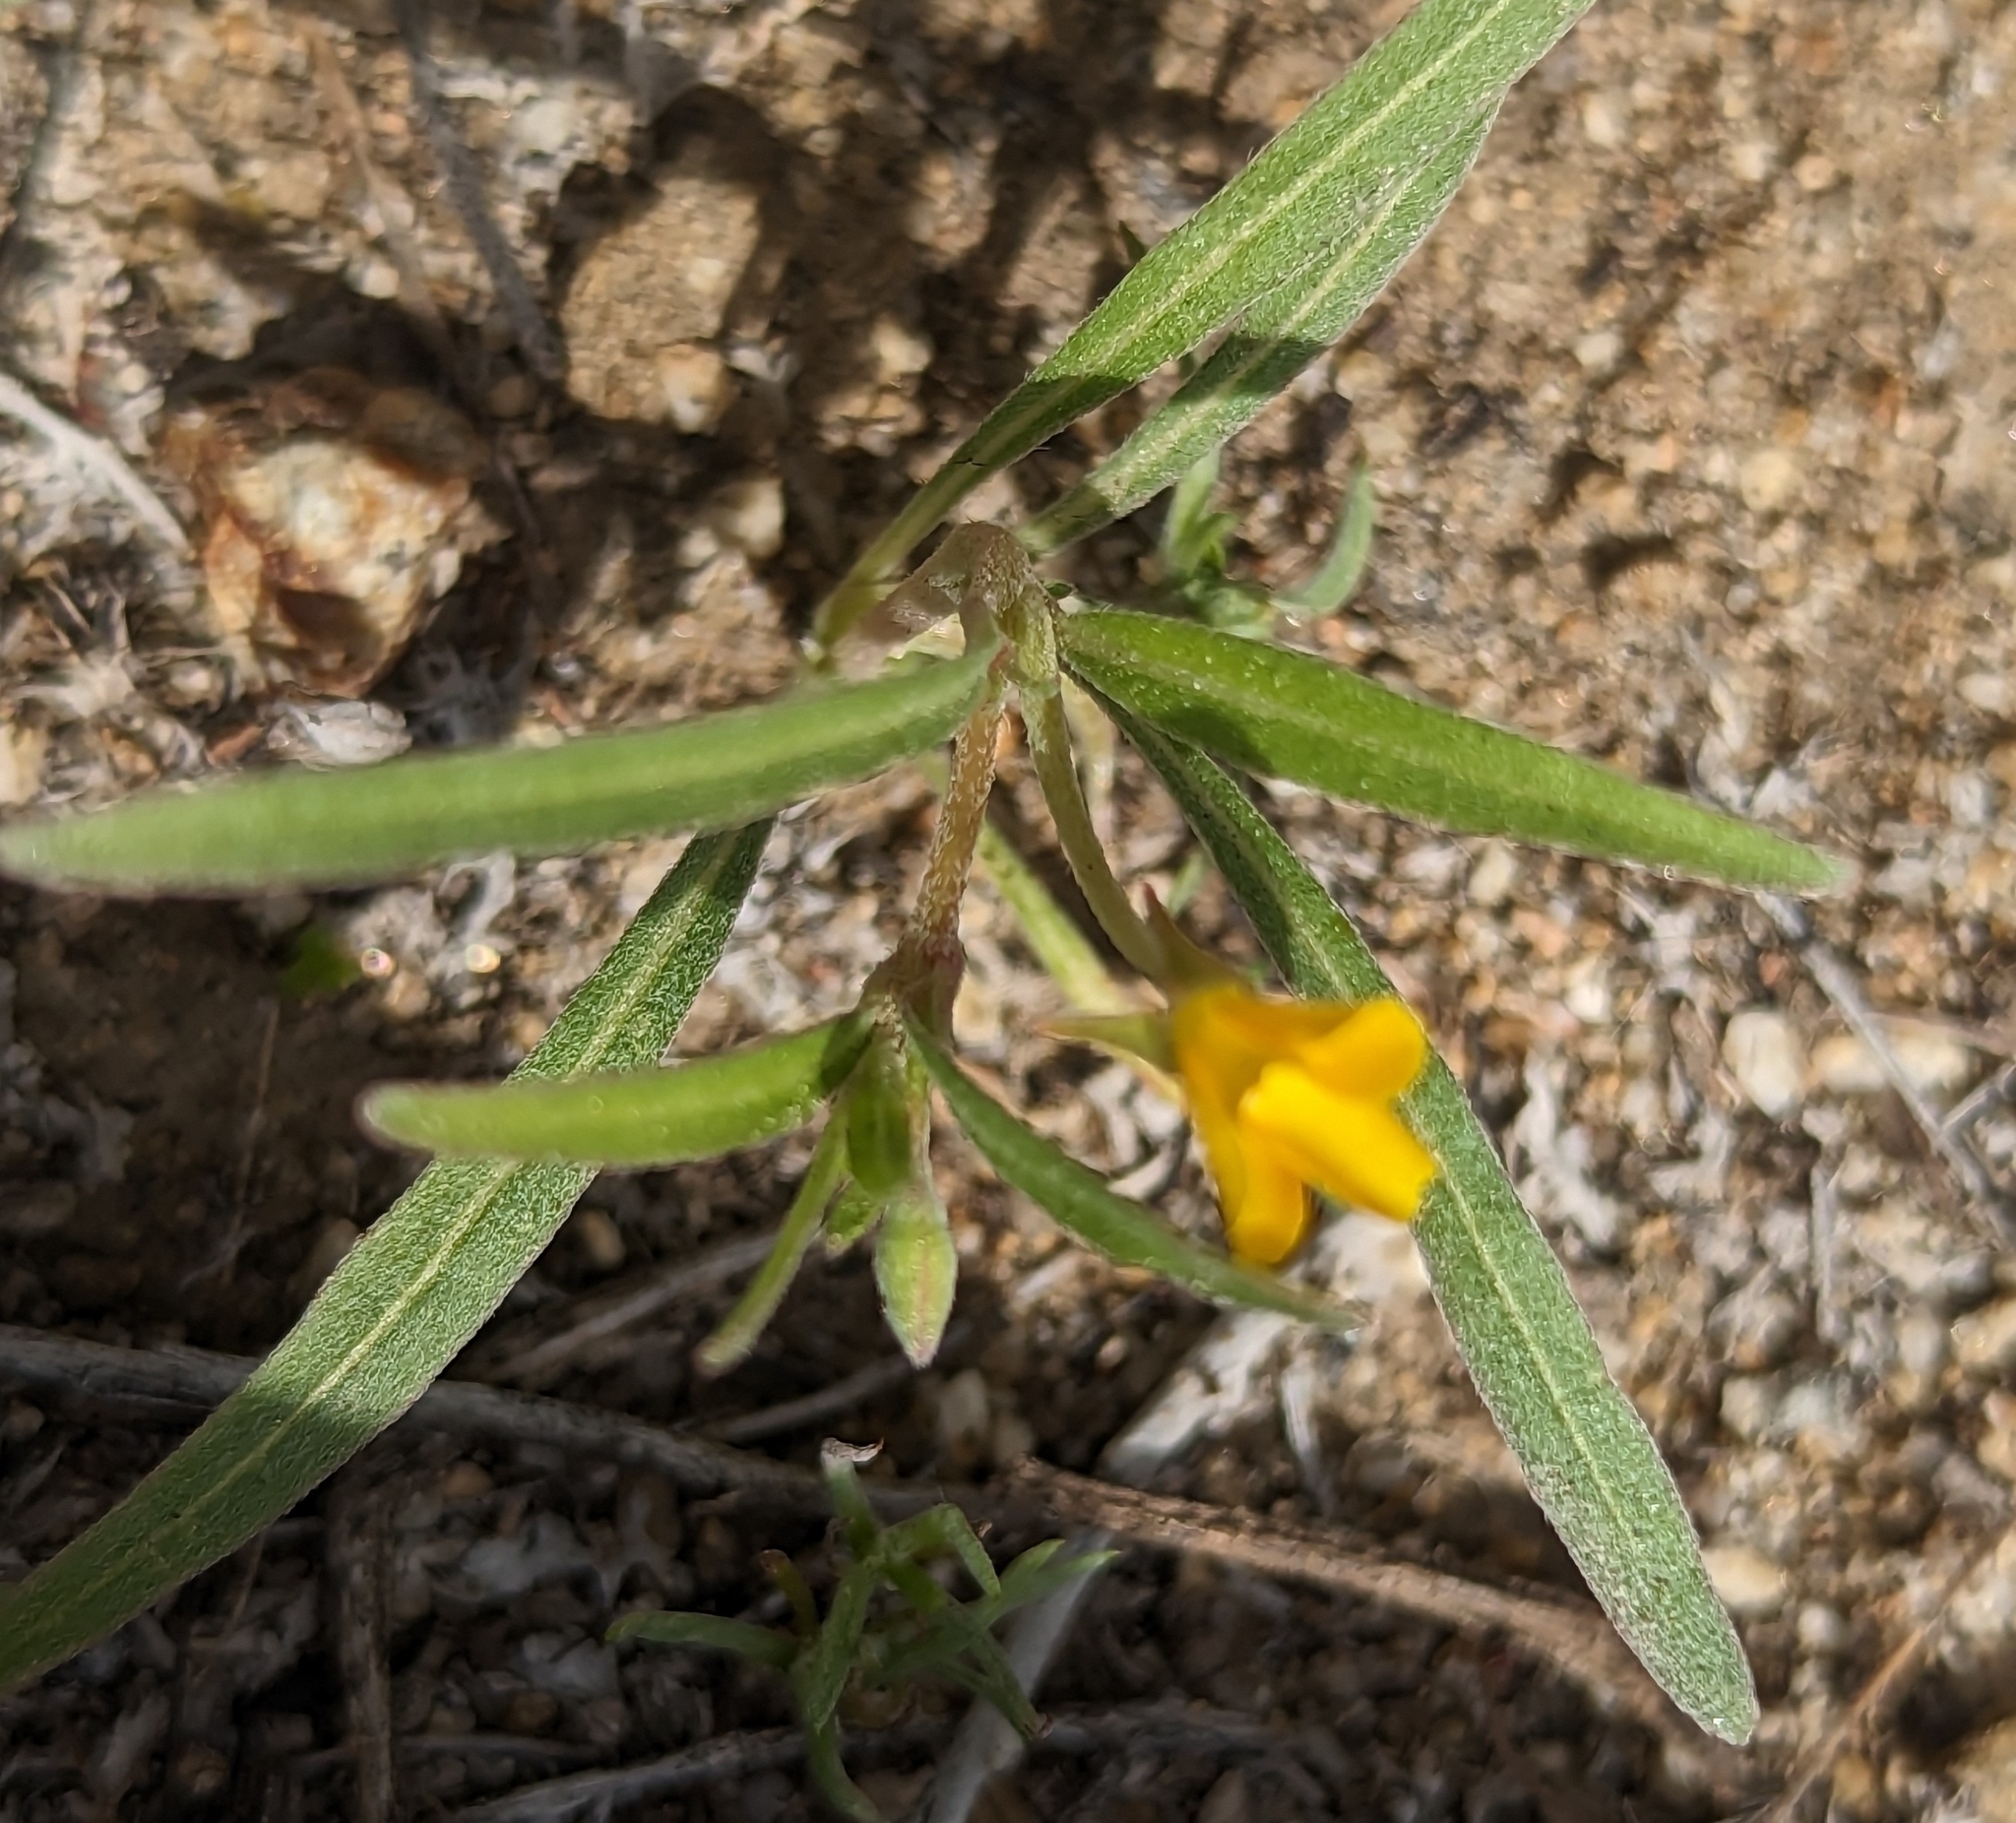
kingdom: Plantae
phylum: Tracheophyta
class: Magnoliopsida
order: Myrtales
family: Onagraceae
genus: Camissoniopsis
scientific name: Camissoniopsis pallida
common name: Paleyellow suncup
